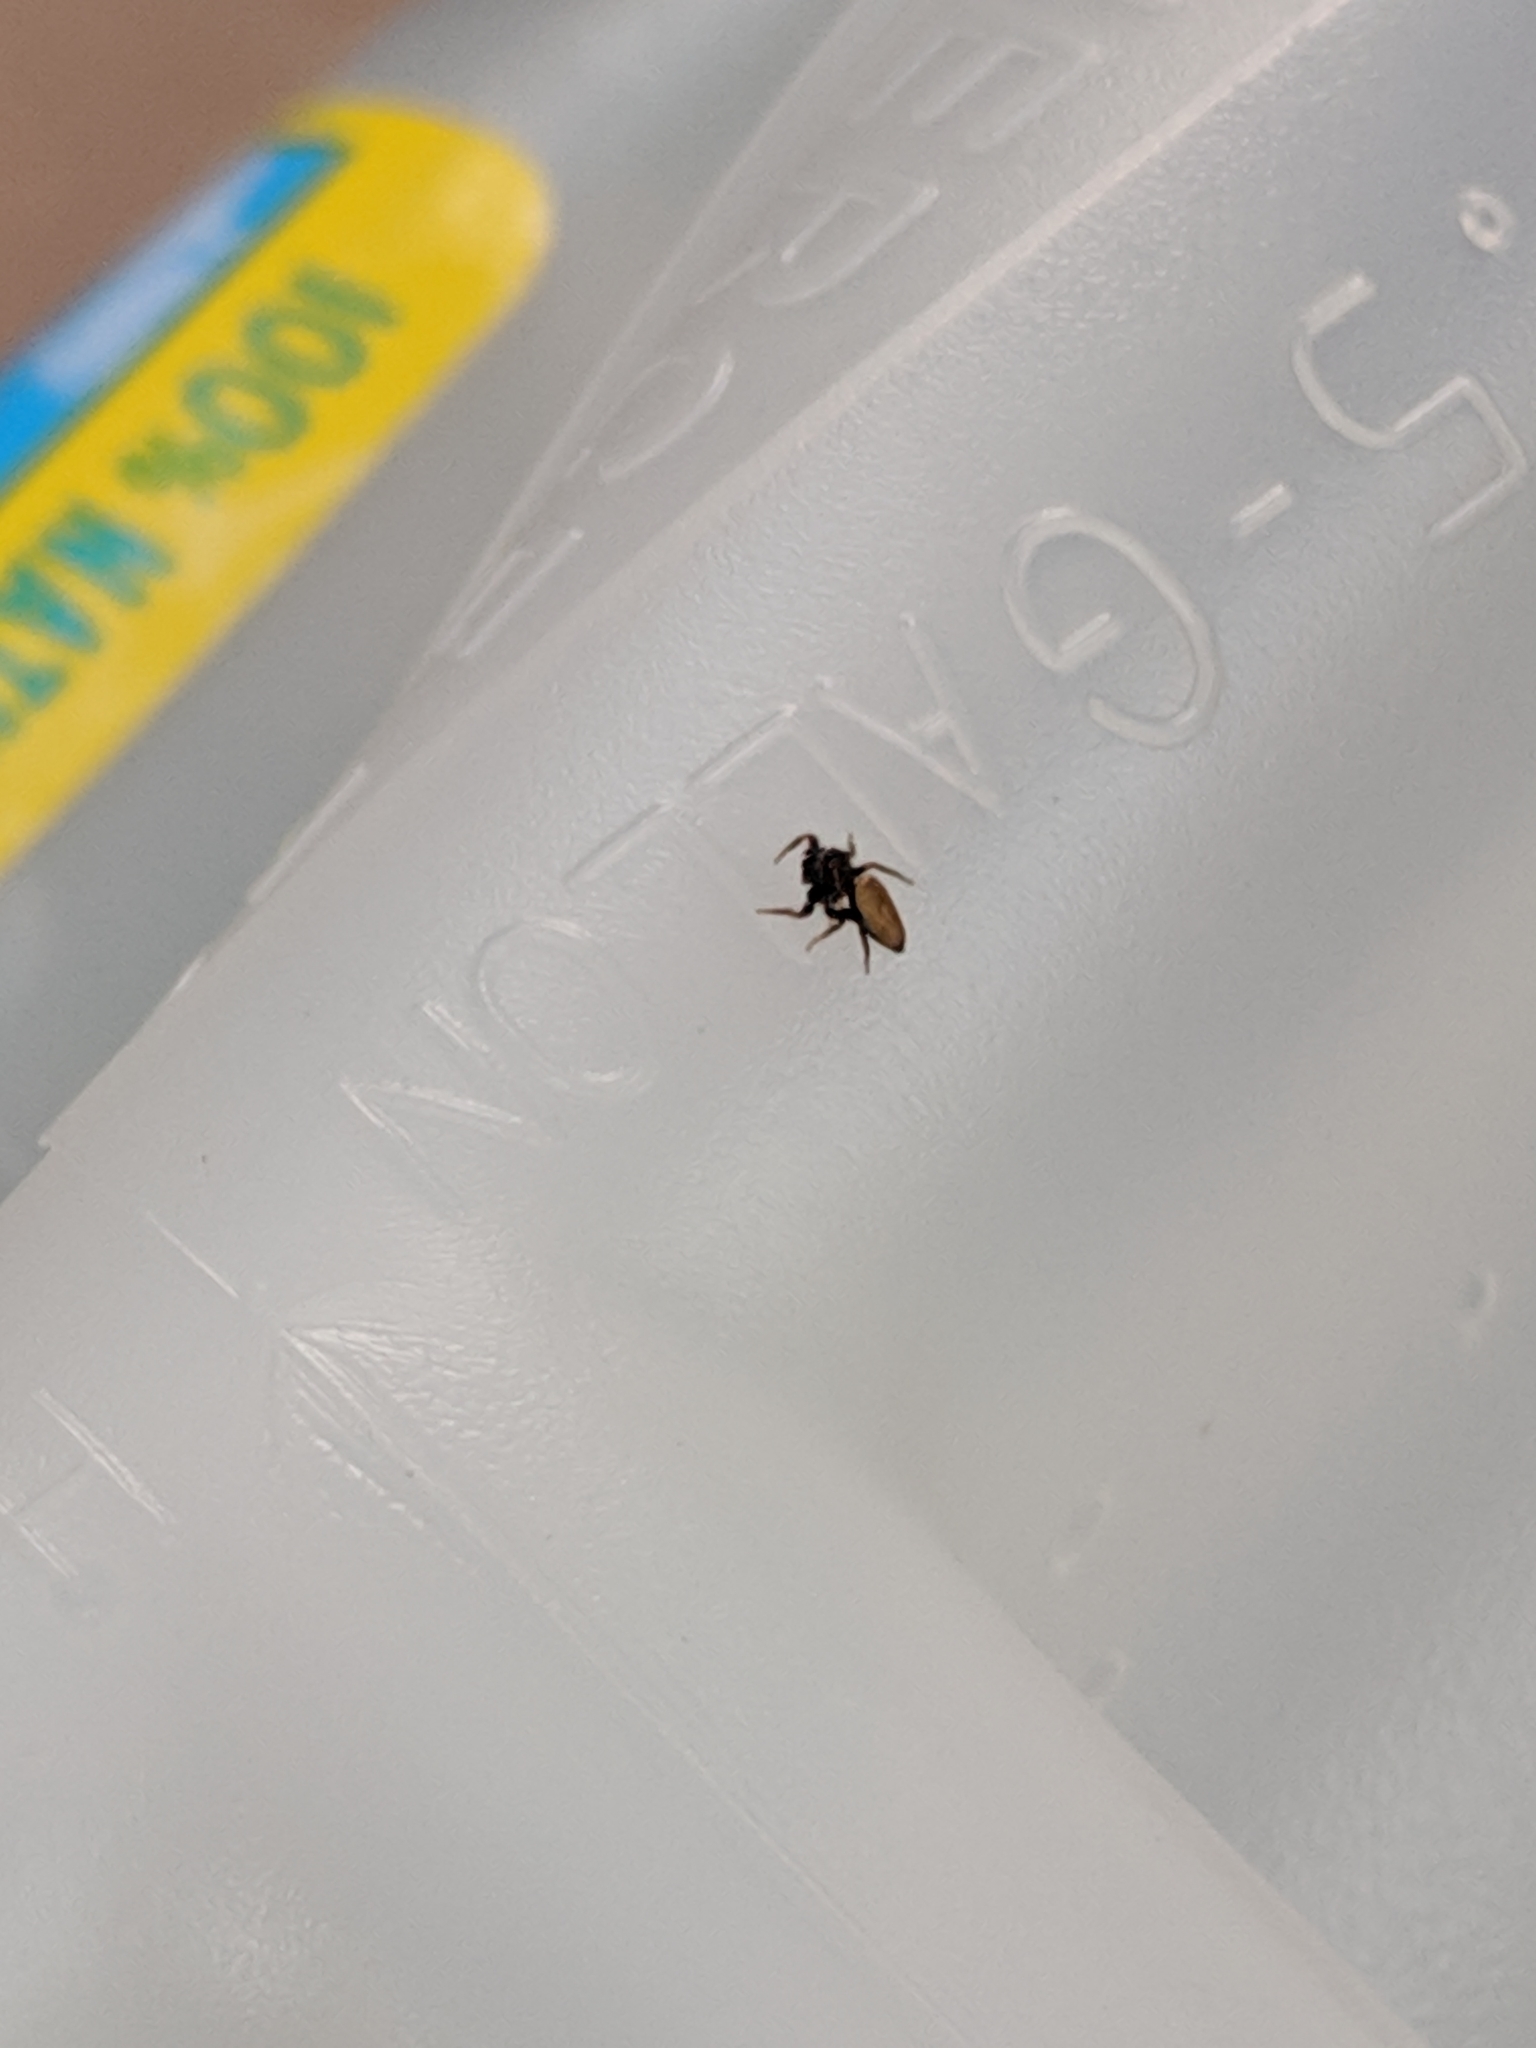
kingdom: Animalia
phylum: Arthropoda
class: Arachnida
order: Araneae
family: Salticidae
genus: Beata
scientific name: Beata wickhami
